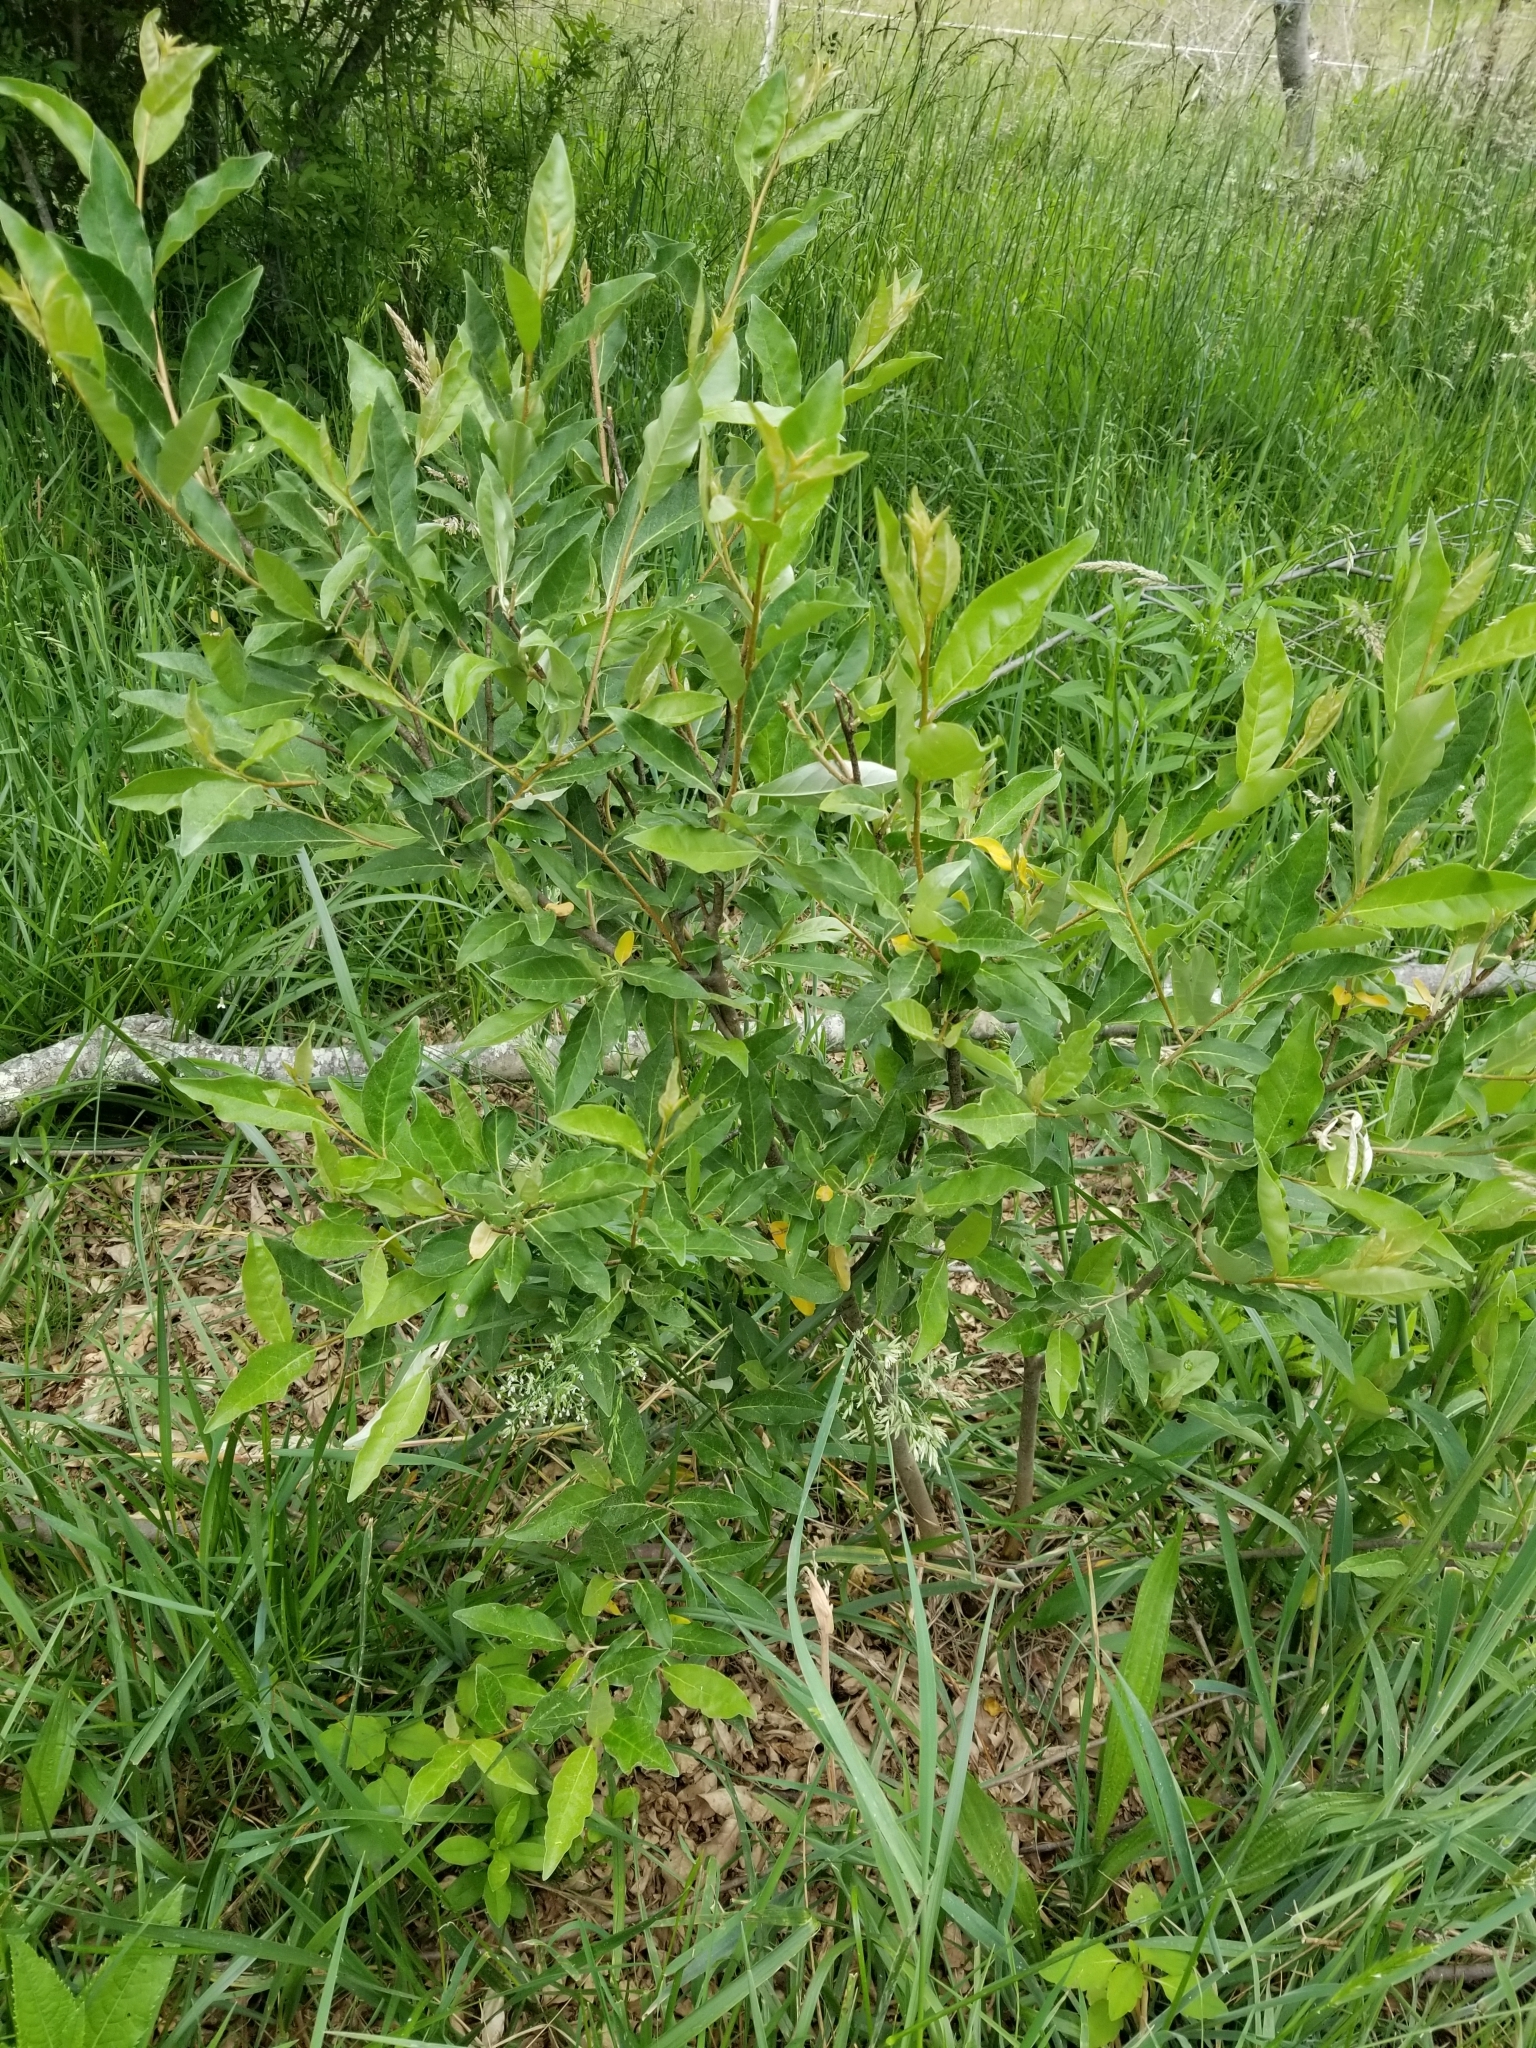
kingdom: Plantae
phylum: Tracheophyta
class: Magnoliopsida
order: Rosales
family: Elaeagnaceae
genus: Elaeagnus
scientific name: Elaeagnus umbellata
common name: Autumn olive
